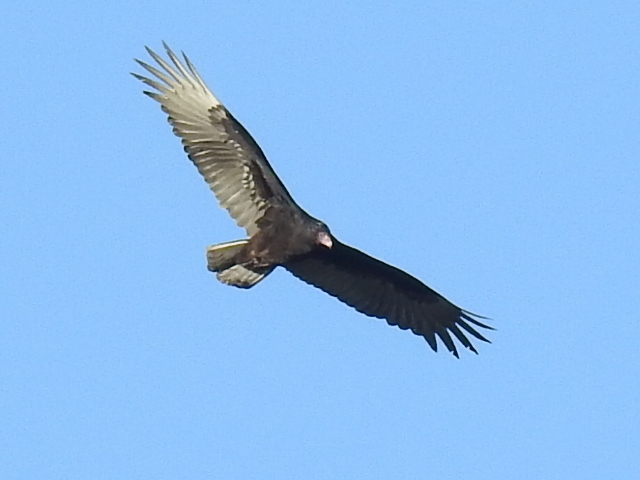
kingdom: Animalia
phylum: Chordata
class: Aves
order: Accipitriformes
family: Cathartidae
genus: Cathartes
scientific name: Cathartes aura
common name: Turkey vulture
